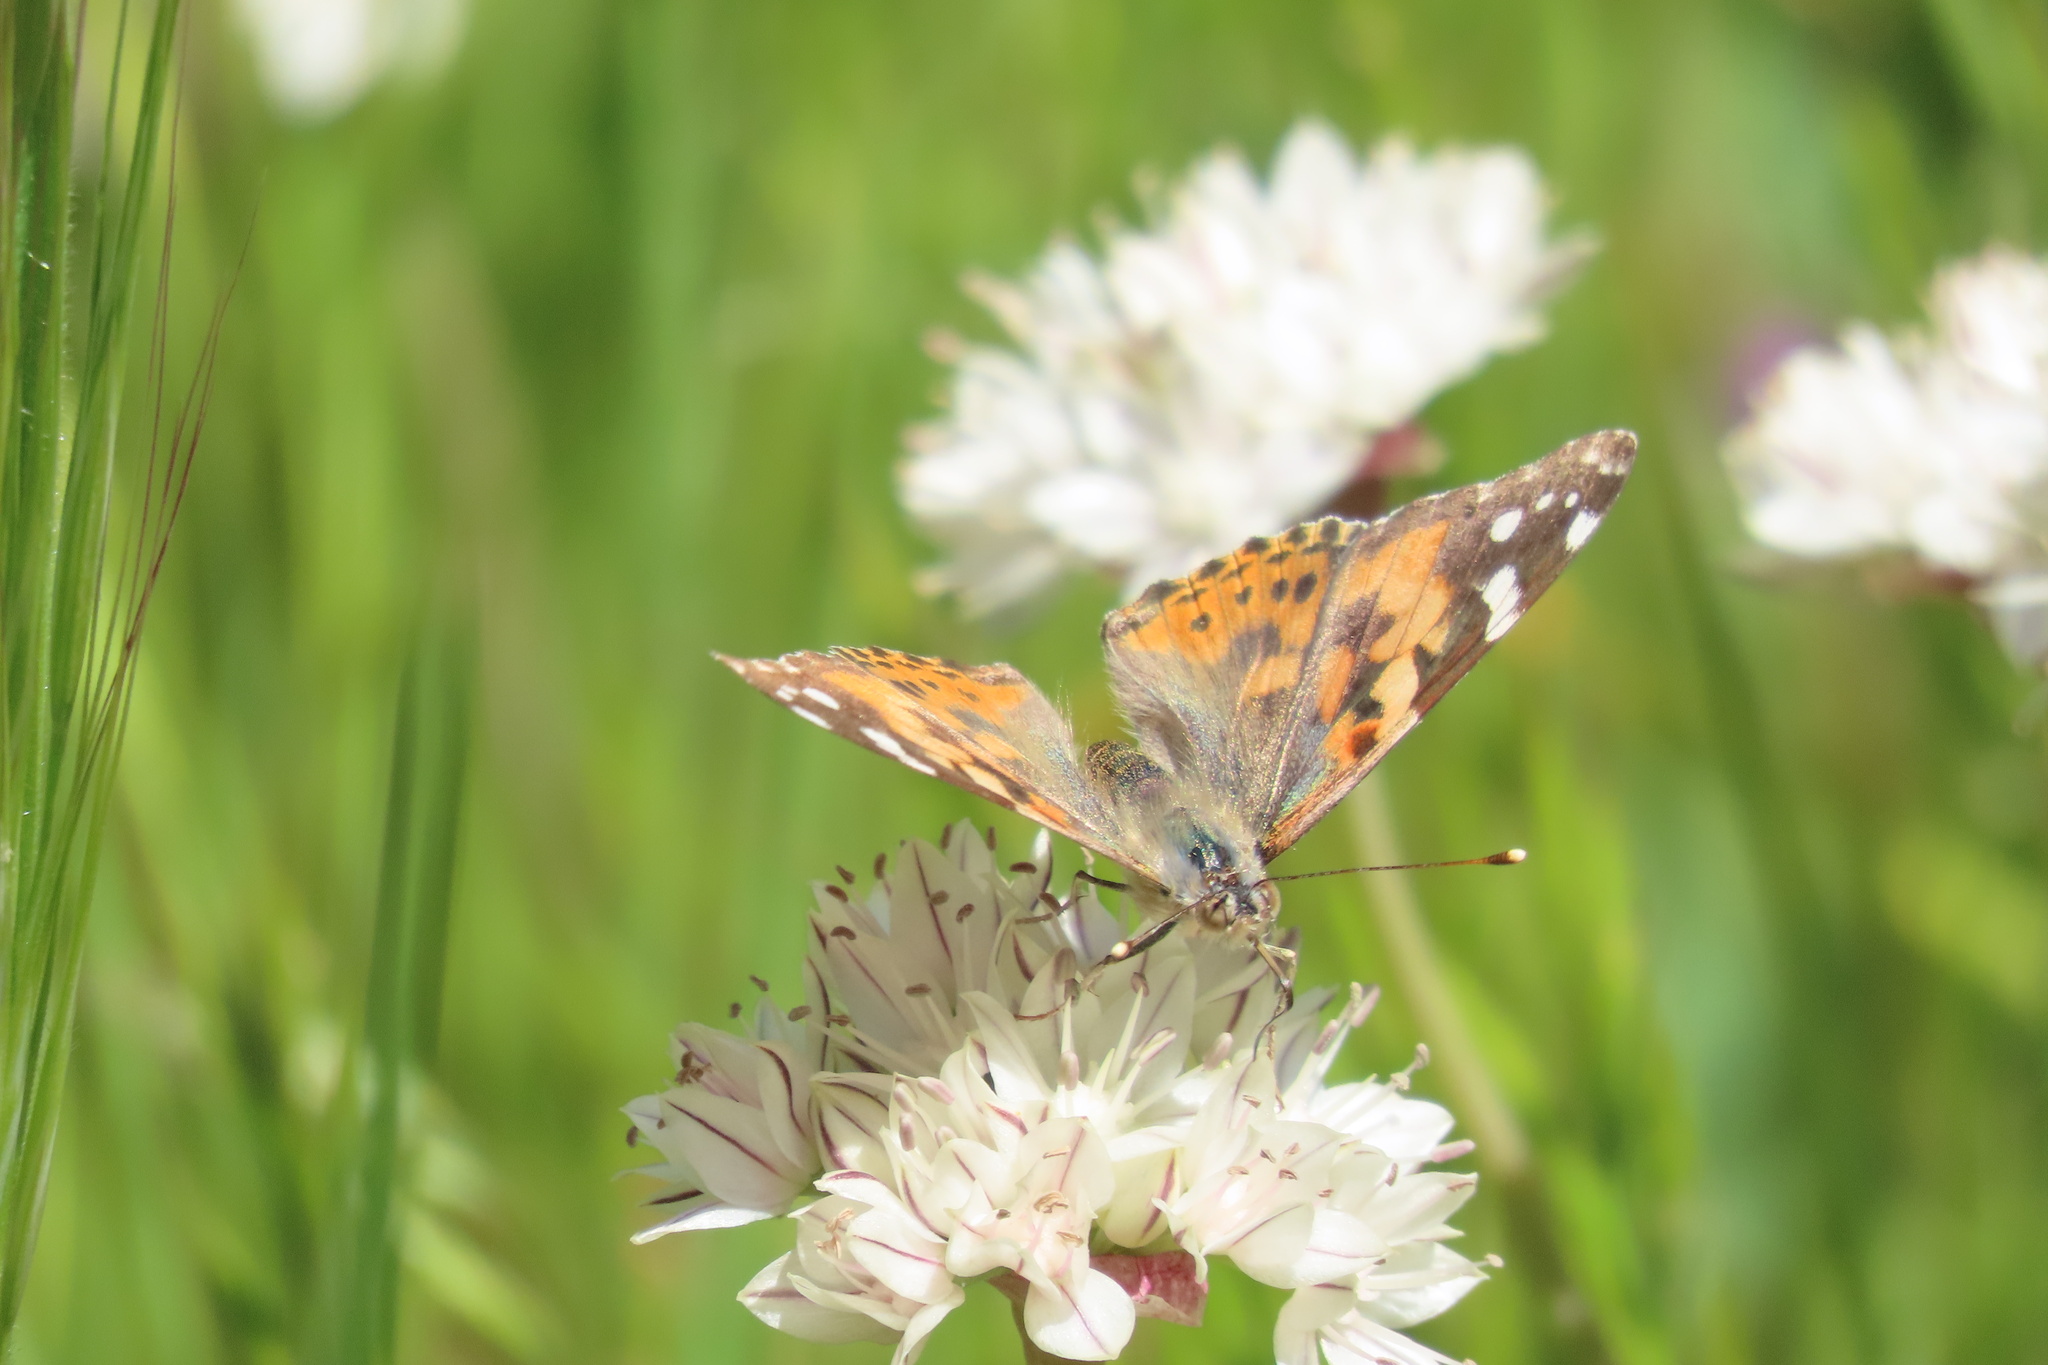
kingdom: Animalia
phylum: Arthropoda
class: Insecta
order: Lepidoptera
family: Nymphalidae
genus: Vanessa
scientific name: Vanessa cardui
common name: Painted lady
